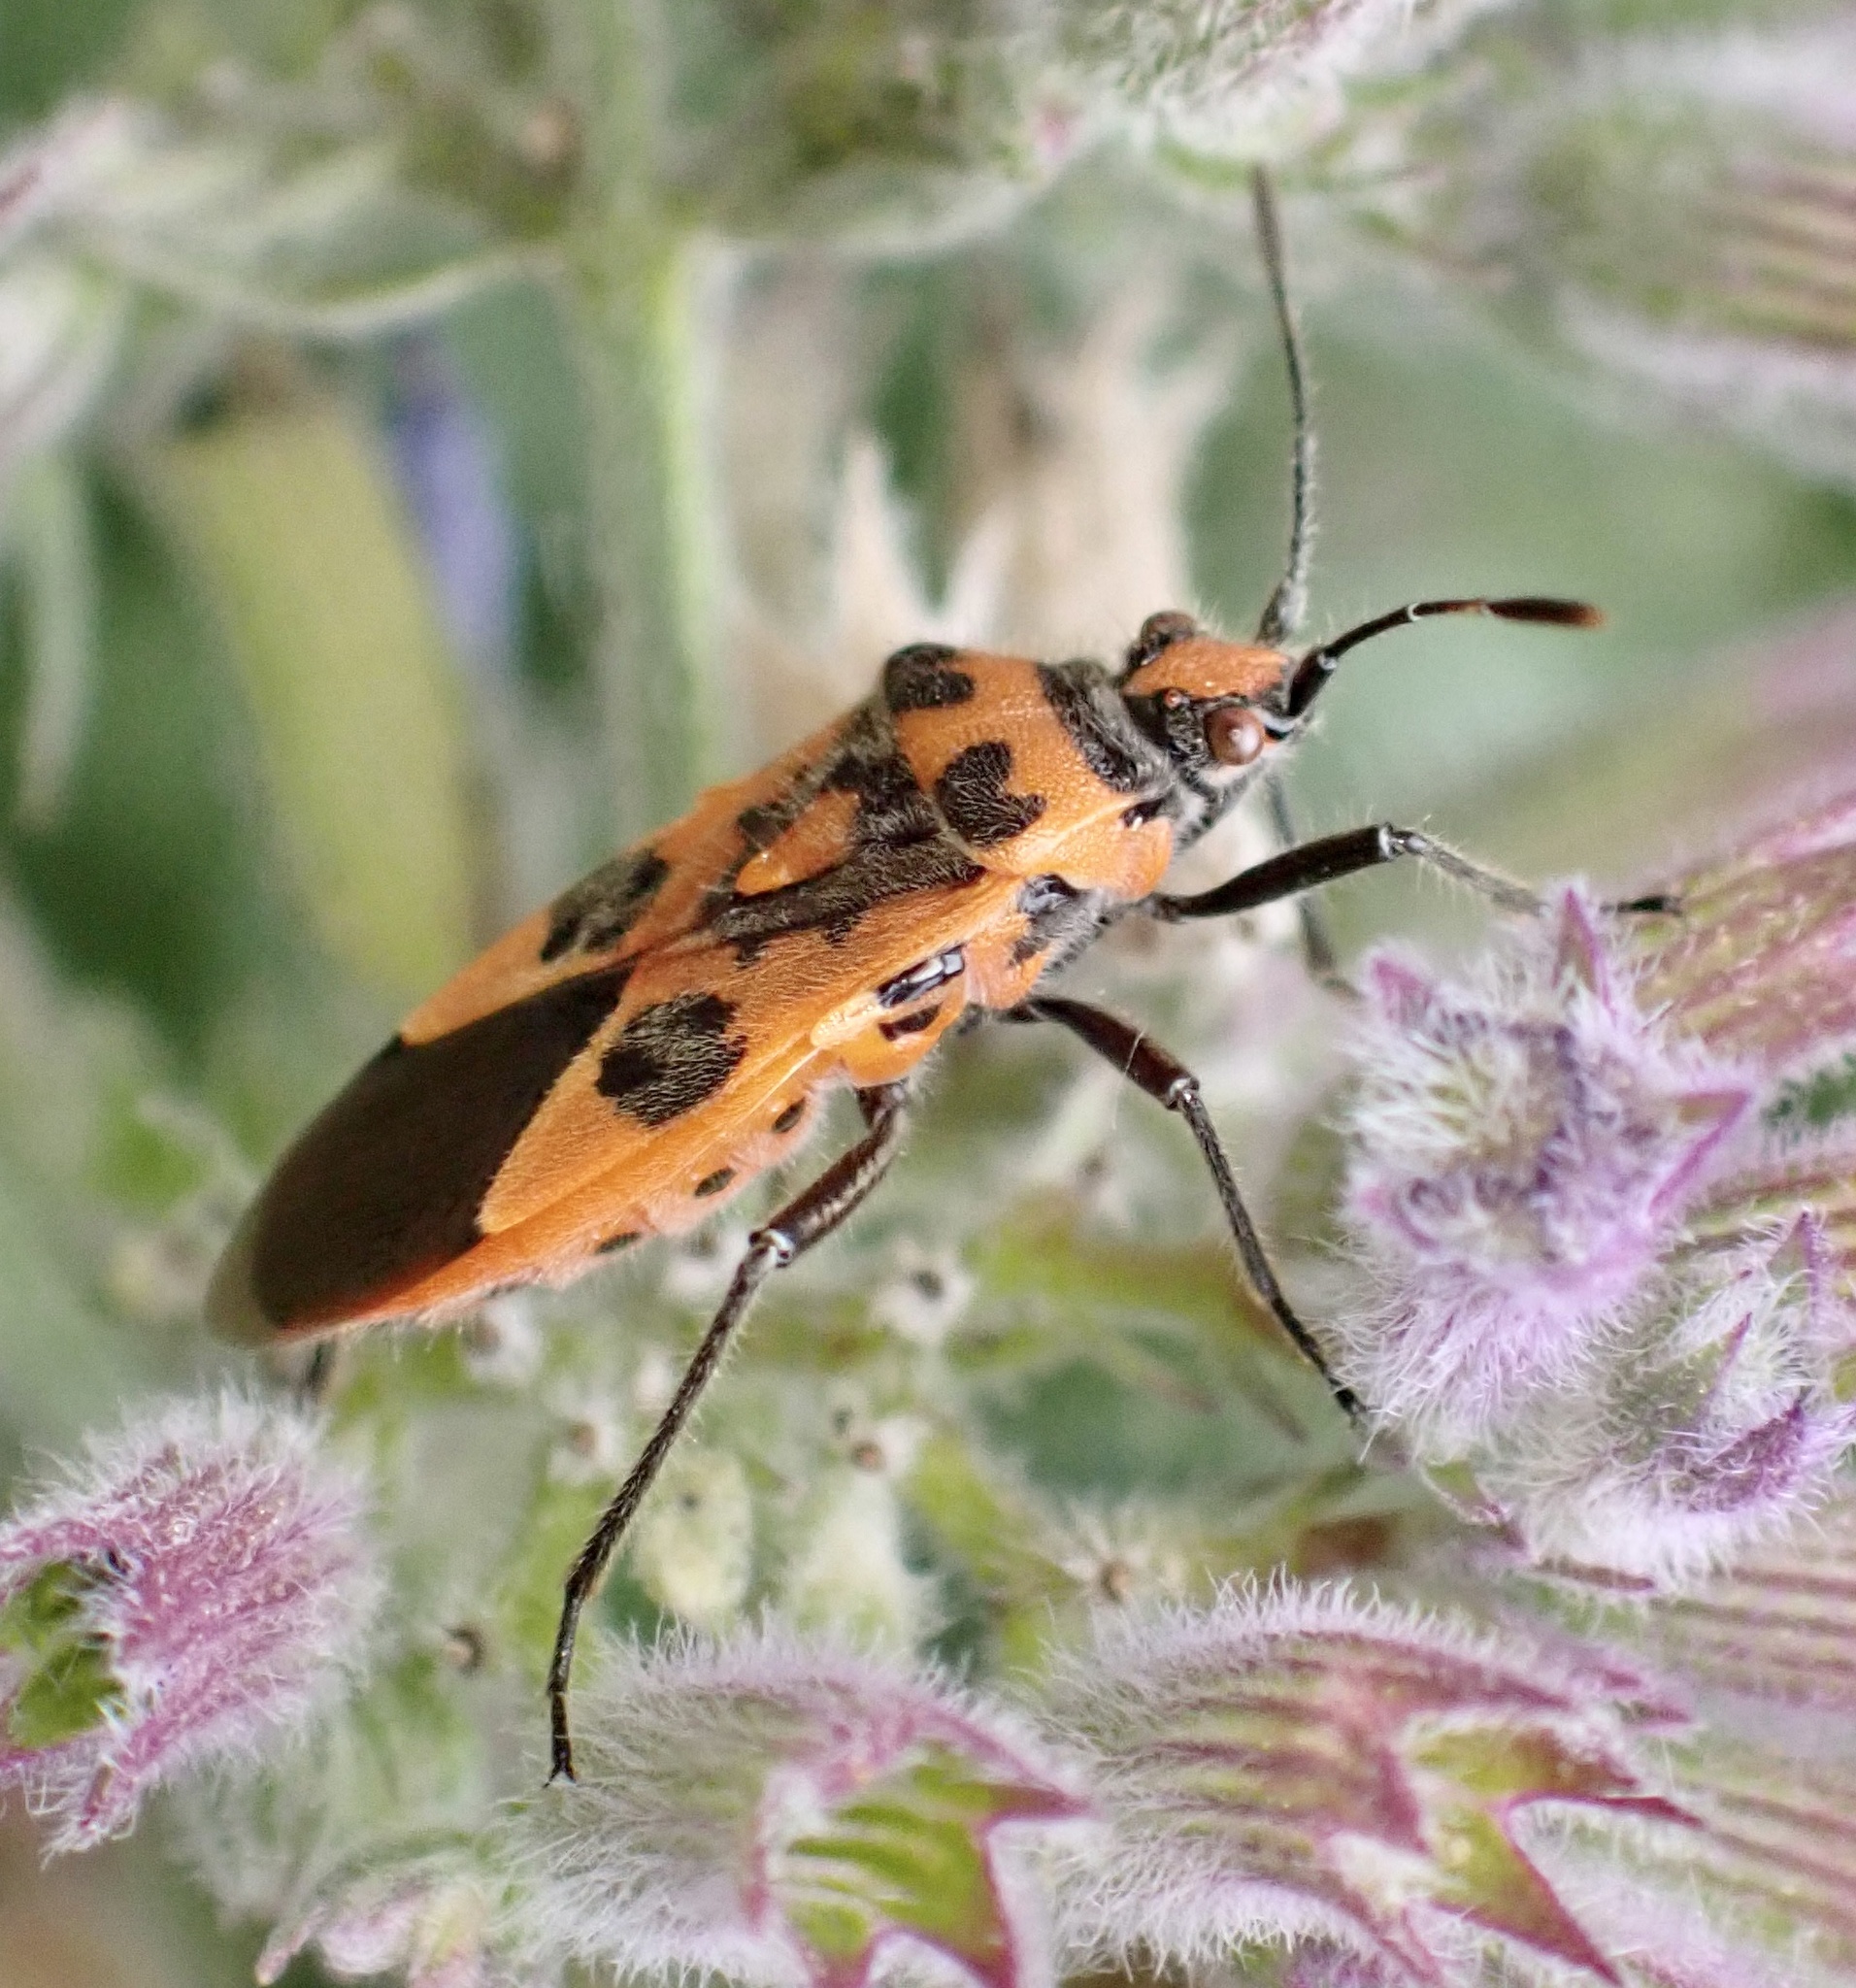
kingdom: Animalia
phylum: Arthropoda
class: Insecta
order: Hemiptera
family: Rhopalidae
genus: Corizus
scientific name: Corizus hyoscyami
